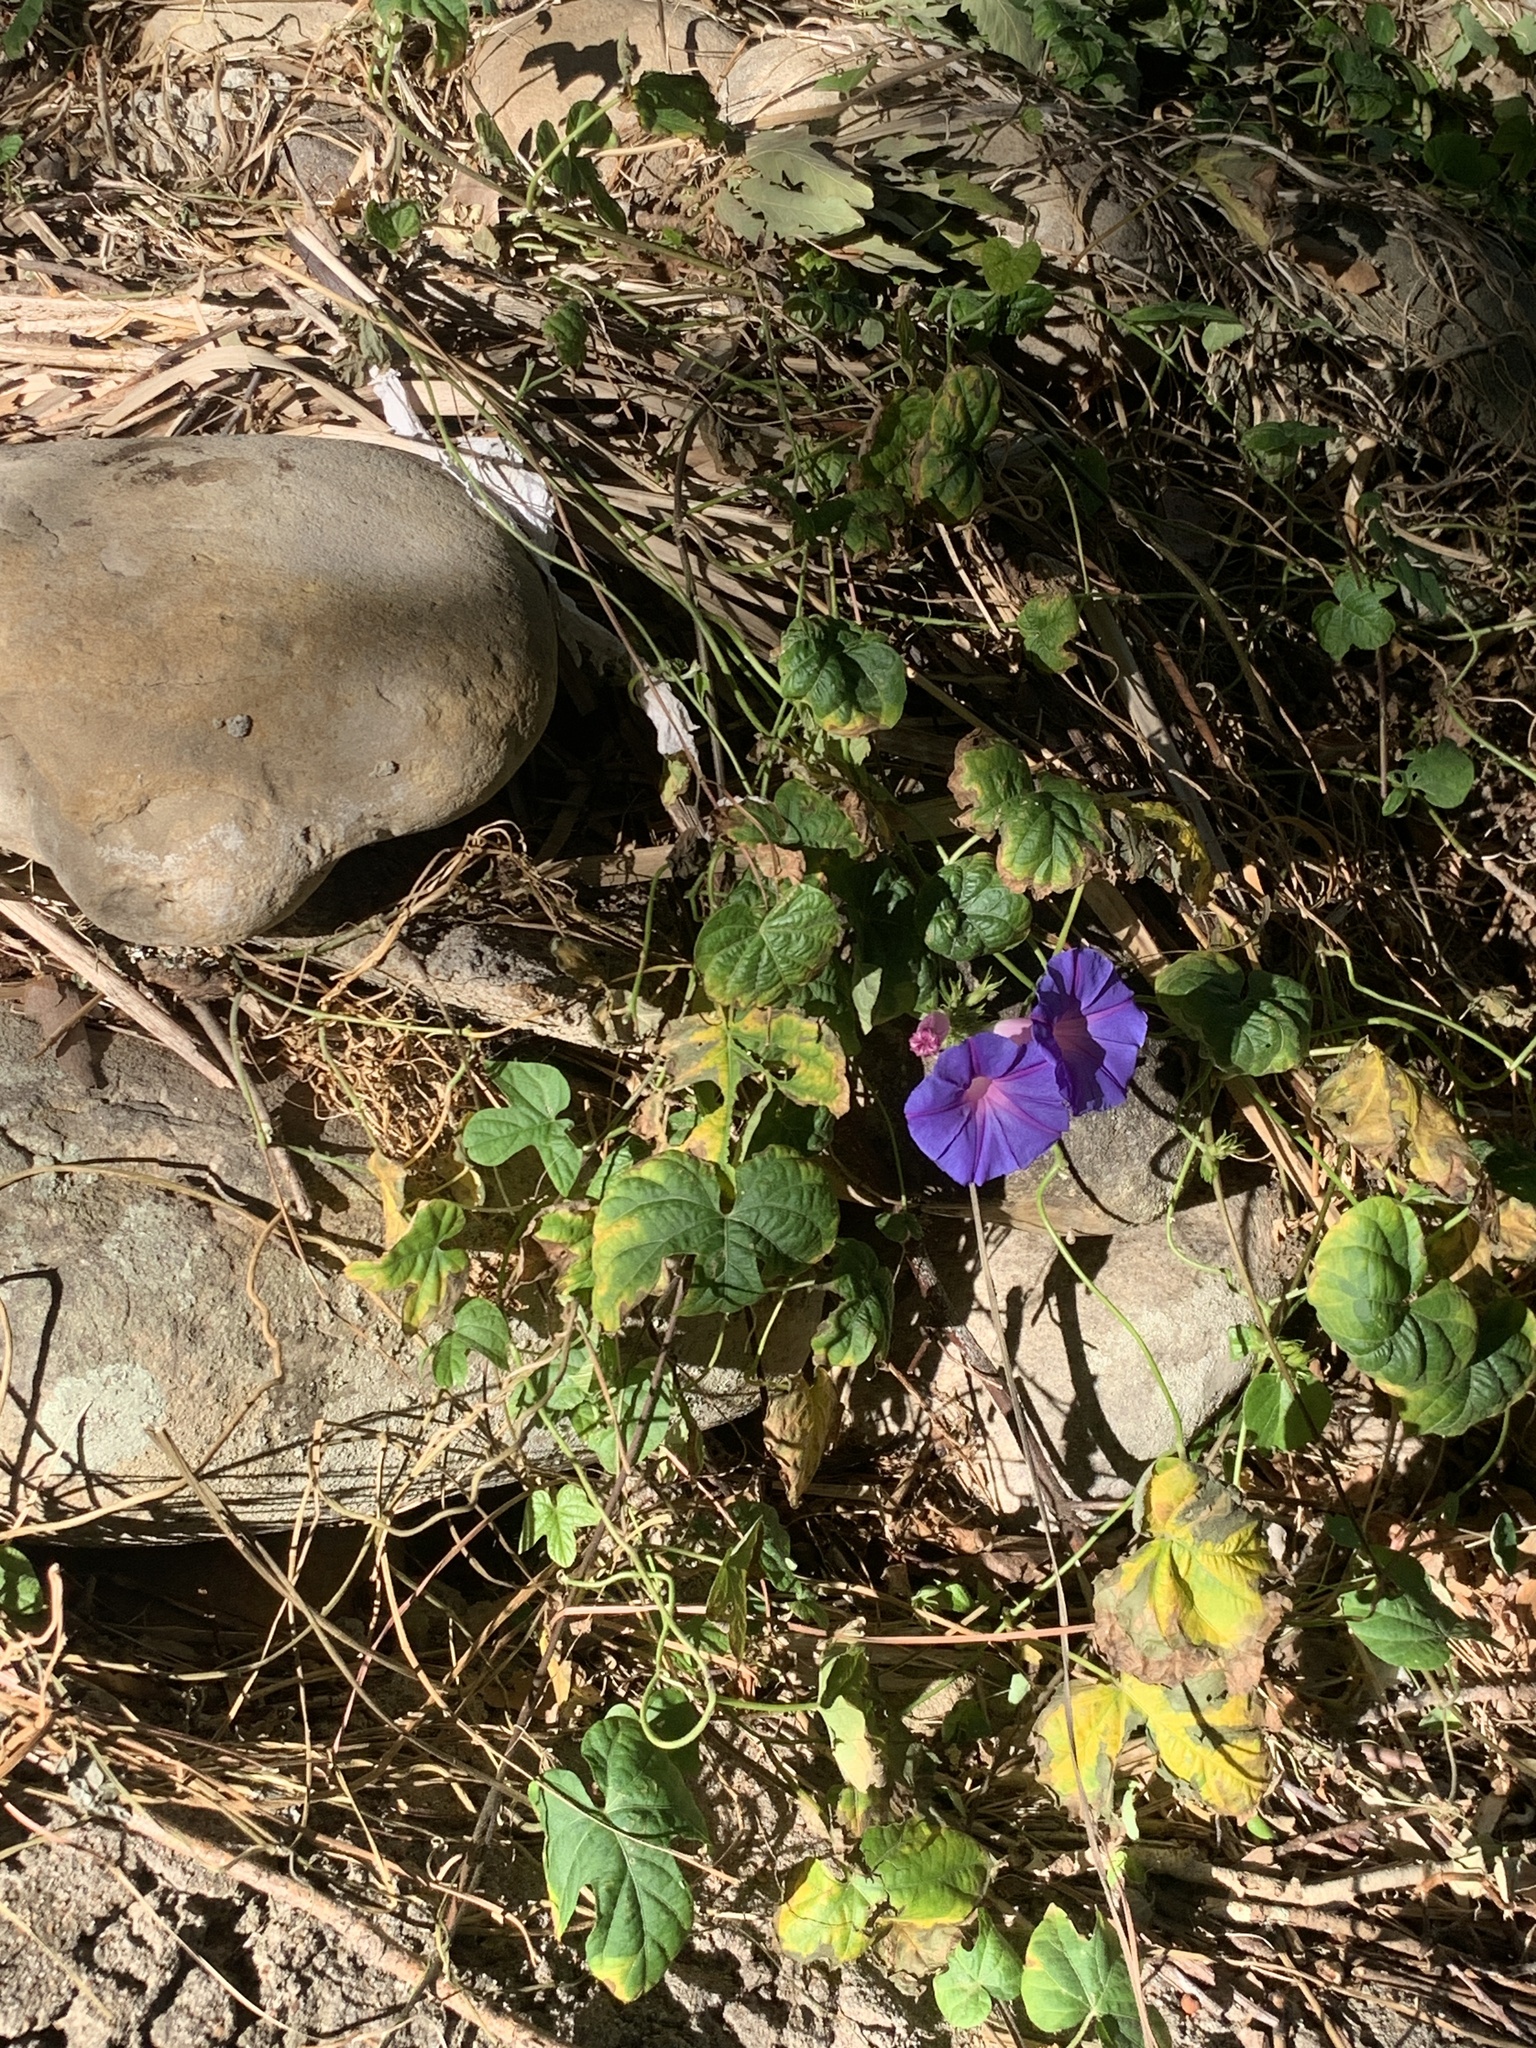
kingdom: Plantae
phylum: Tracheophyta
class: Magnoliopsida
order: Solanales
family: Convolvulaceae
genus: Ipomoea
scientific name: Ipomoea indica
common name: Blue dawnflower
